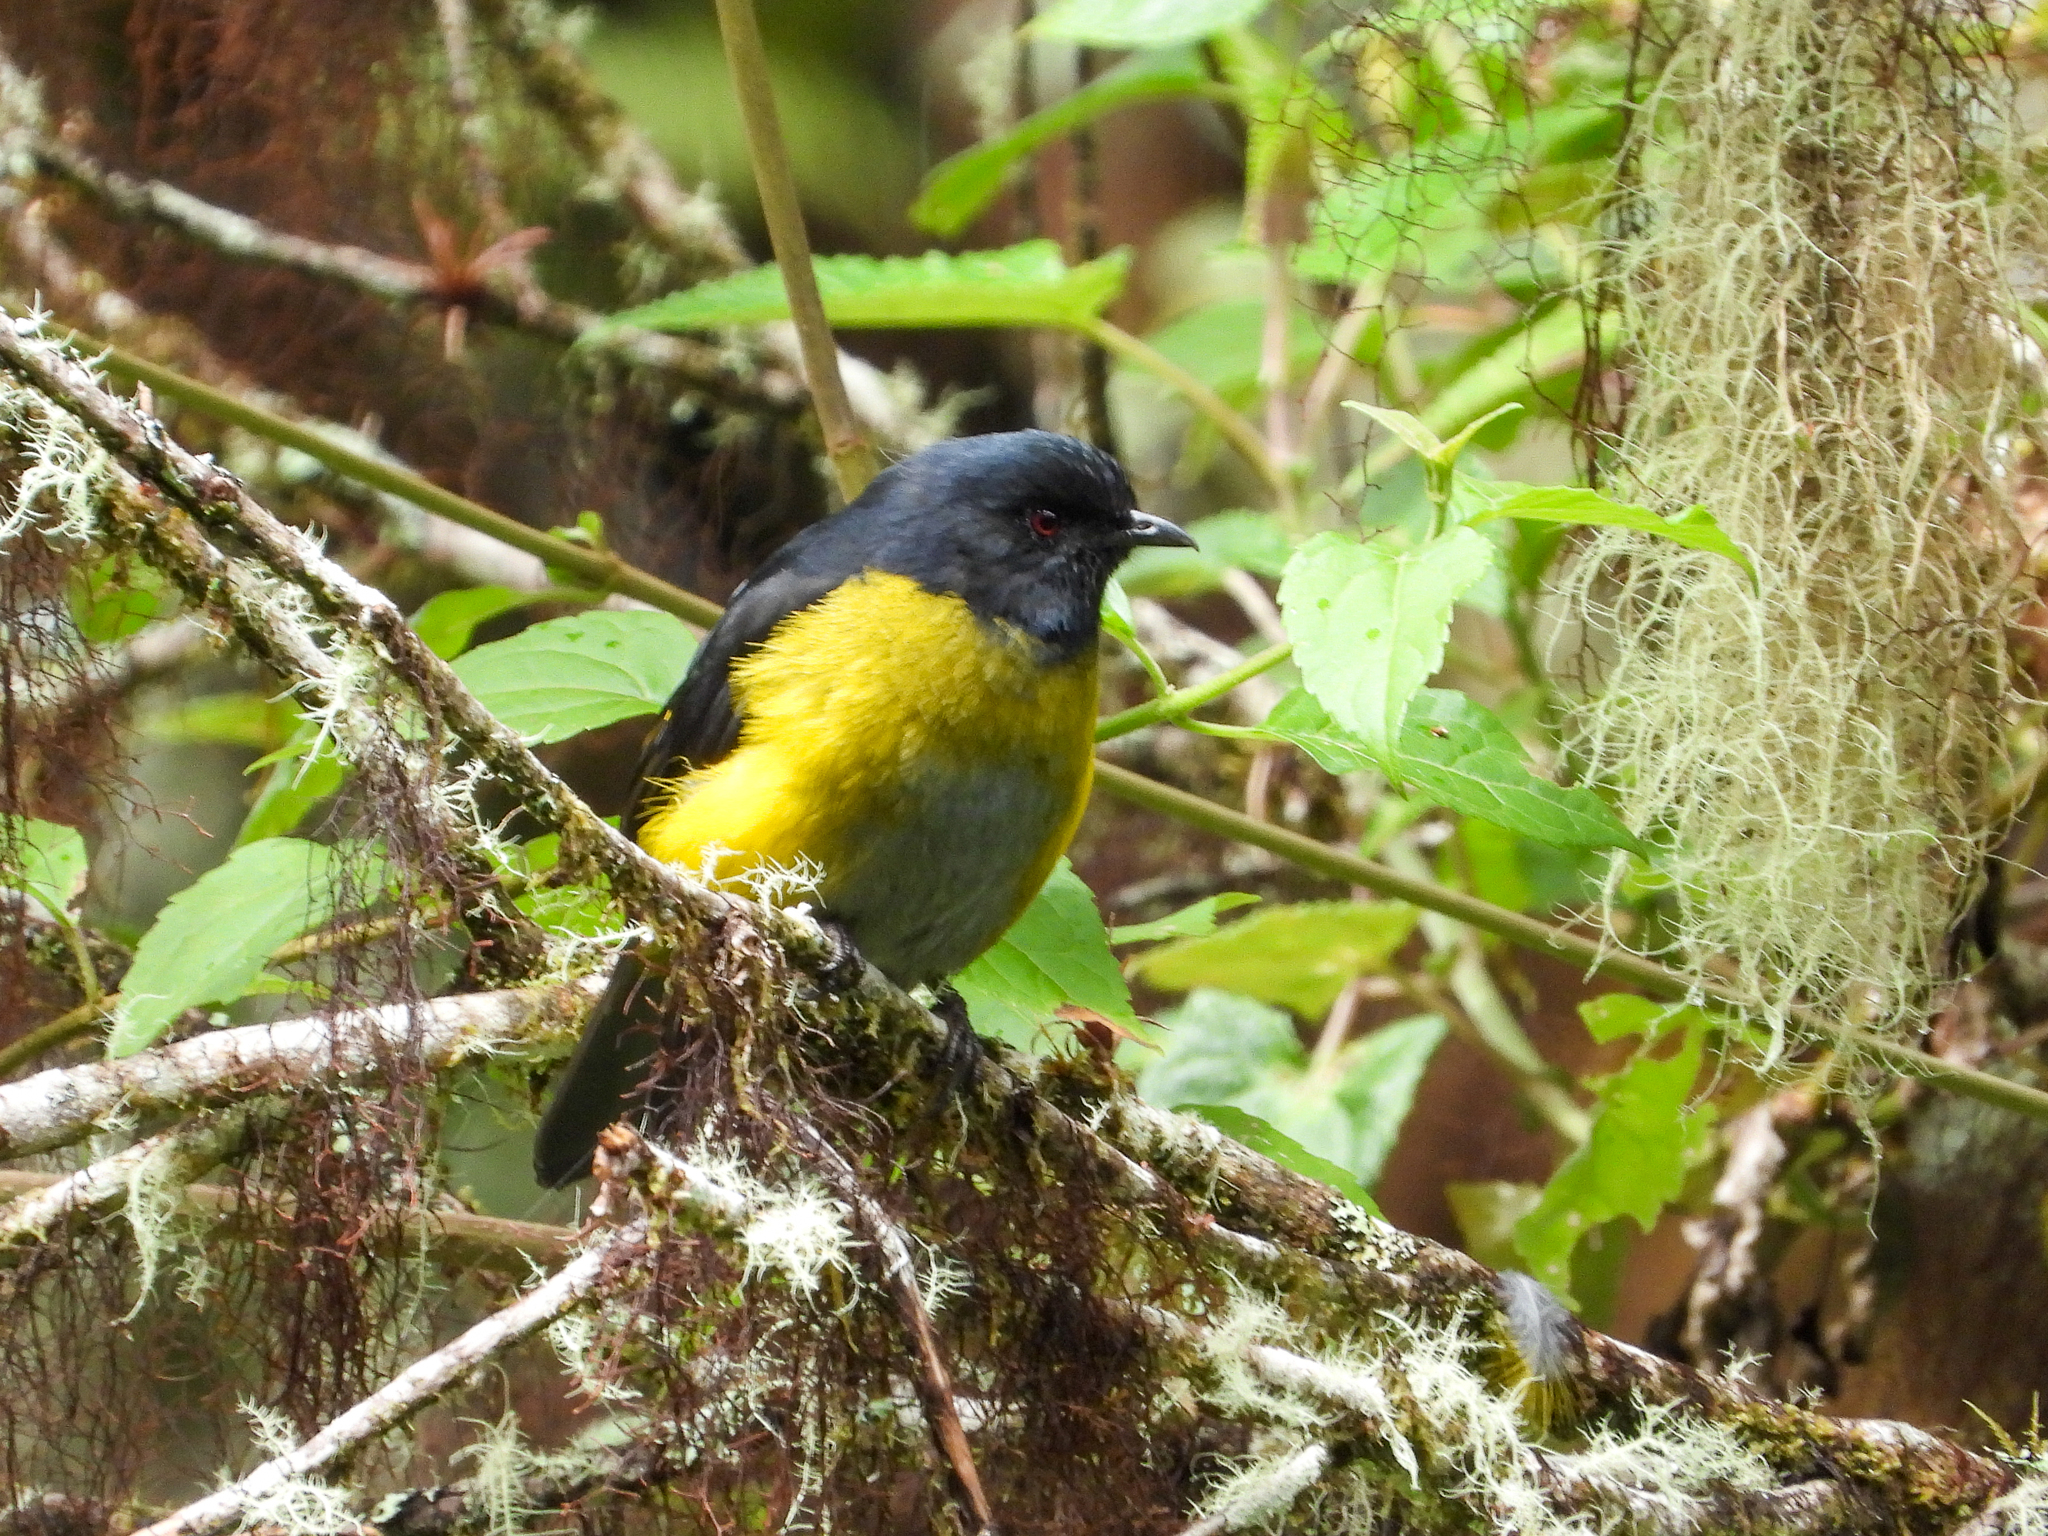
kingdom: Animalia
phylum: Chordata
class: Aves
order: Passeriformes
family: Ptilogonatidae
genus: Phainoptila
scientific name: Phainoptila melanoxantha
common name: Black-and-yellow phainoptila
